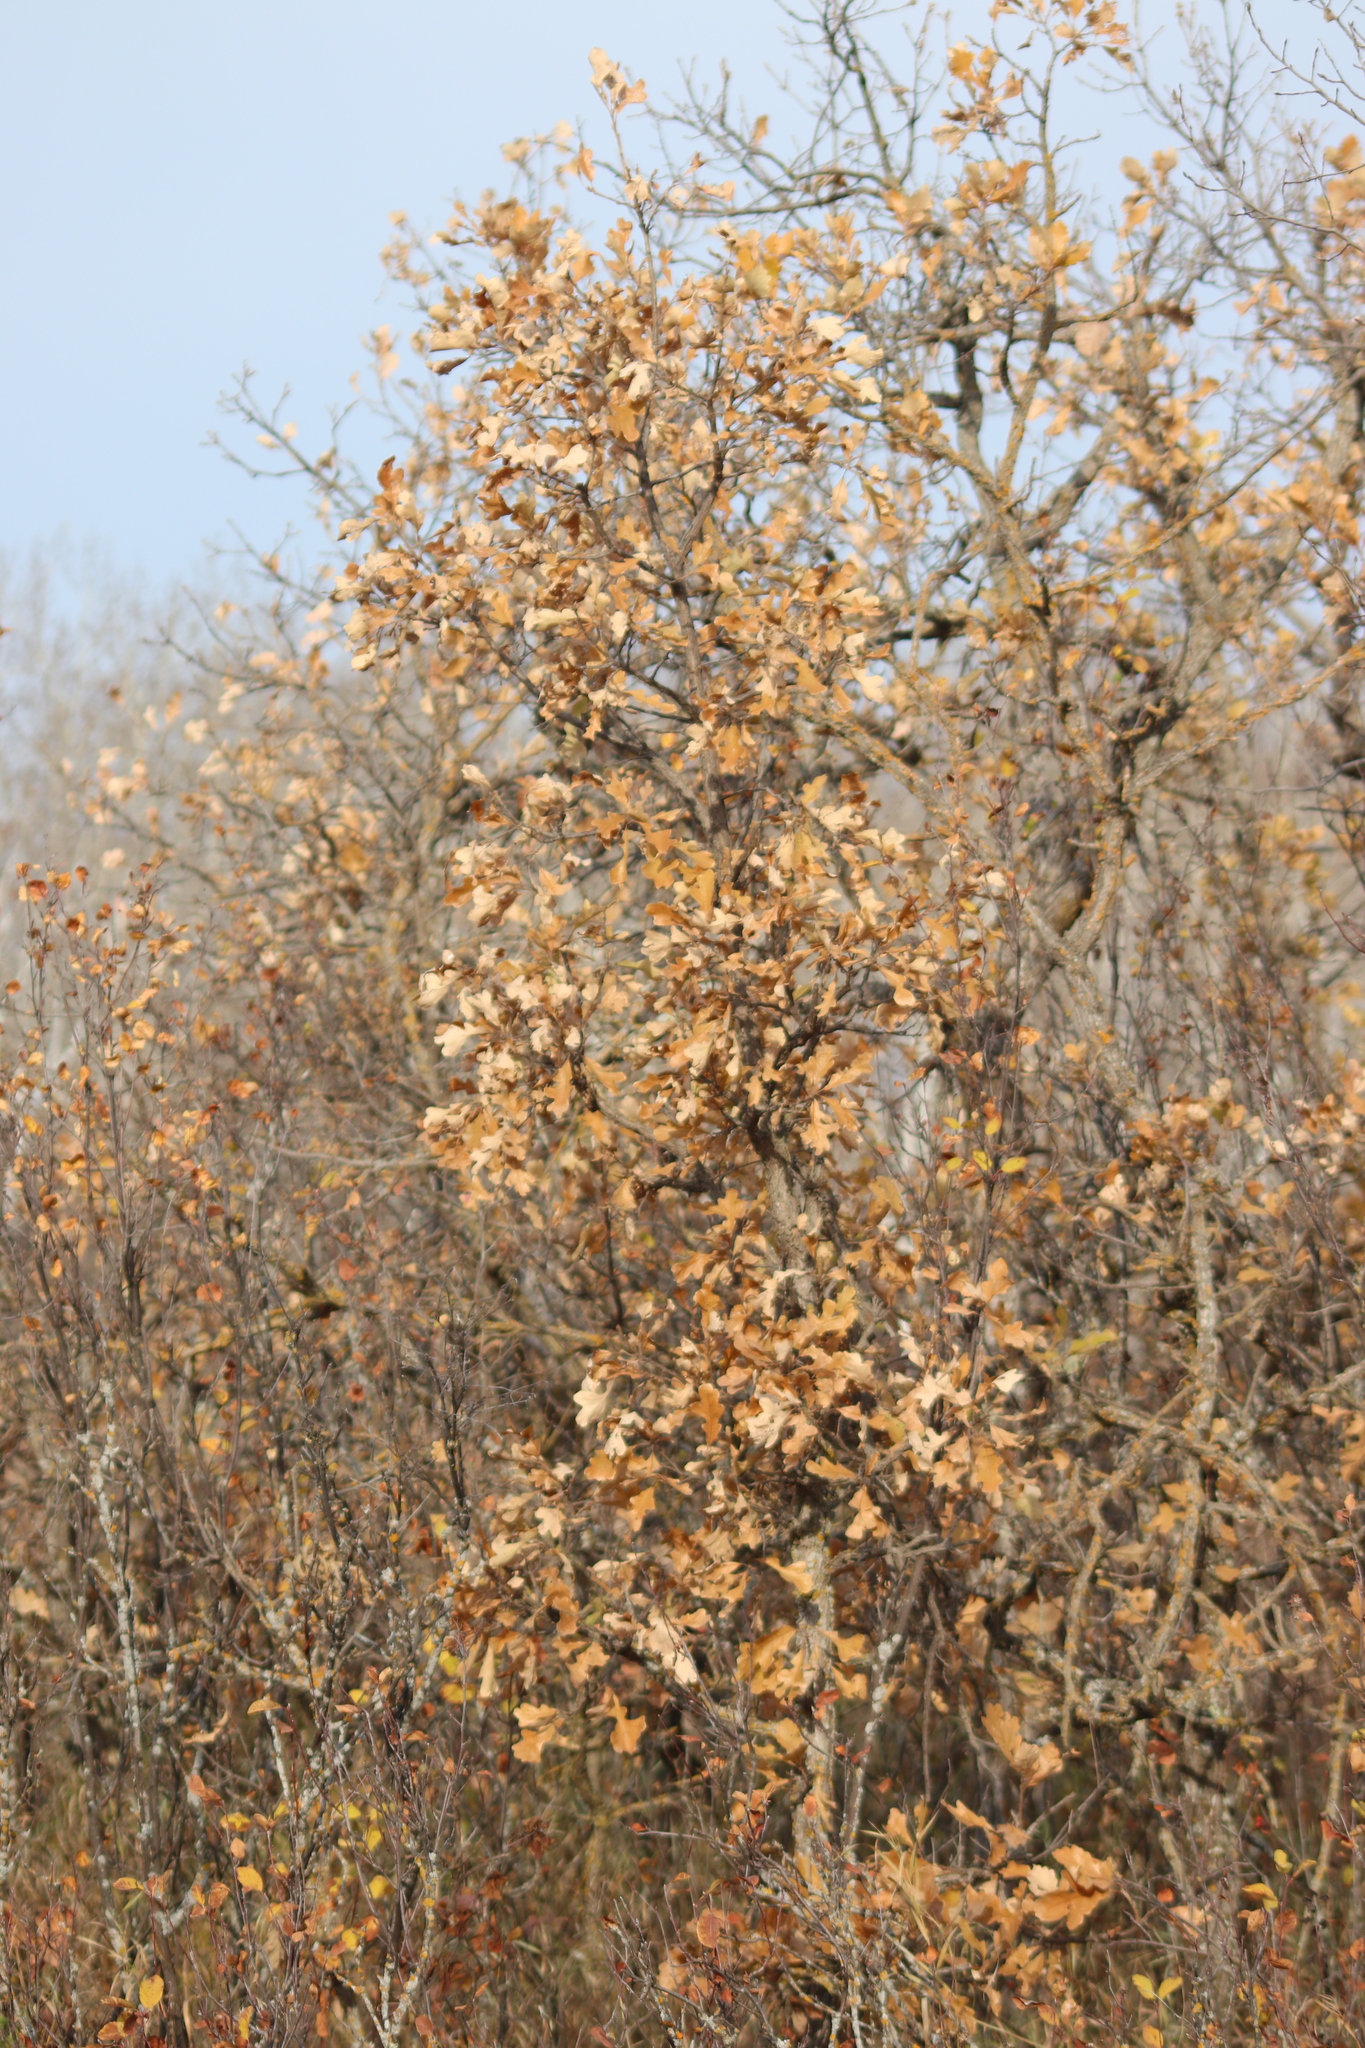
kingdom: Plantae
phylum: Tracheophyta
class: Magnoliopsida
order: Fagales
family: Fagaceae
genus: Quercus
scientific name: Quercus macrocarpa
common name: Bur oak
